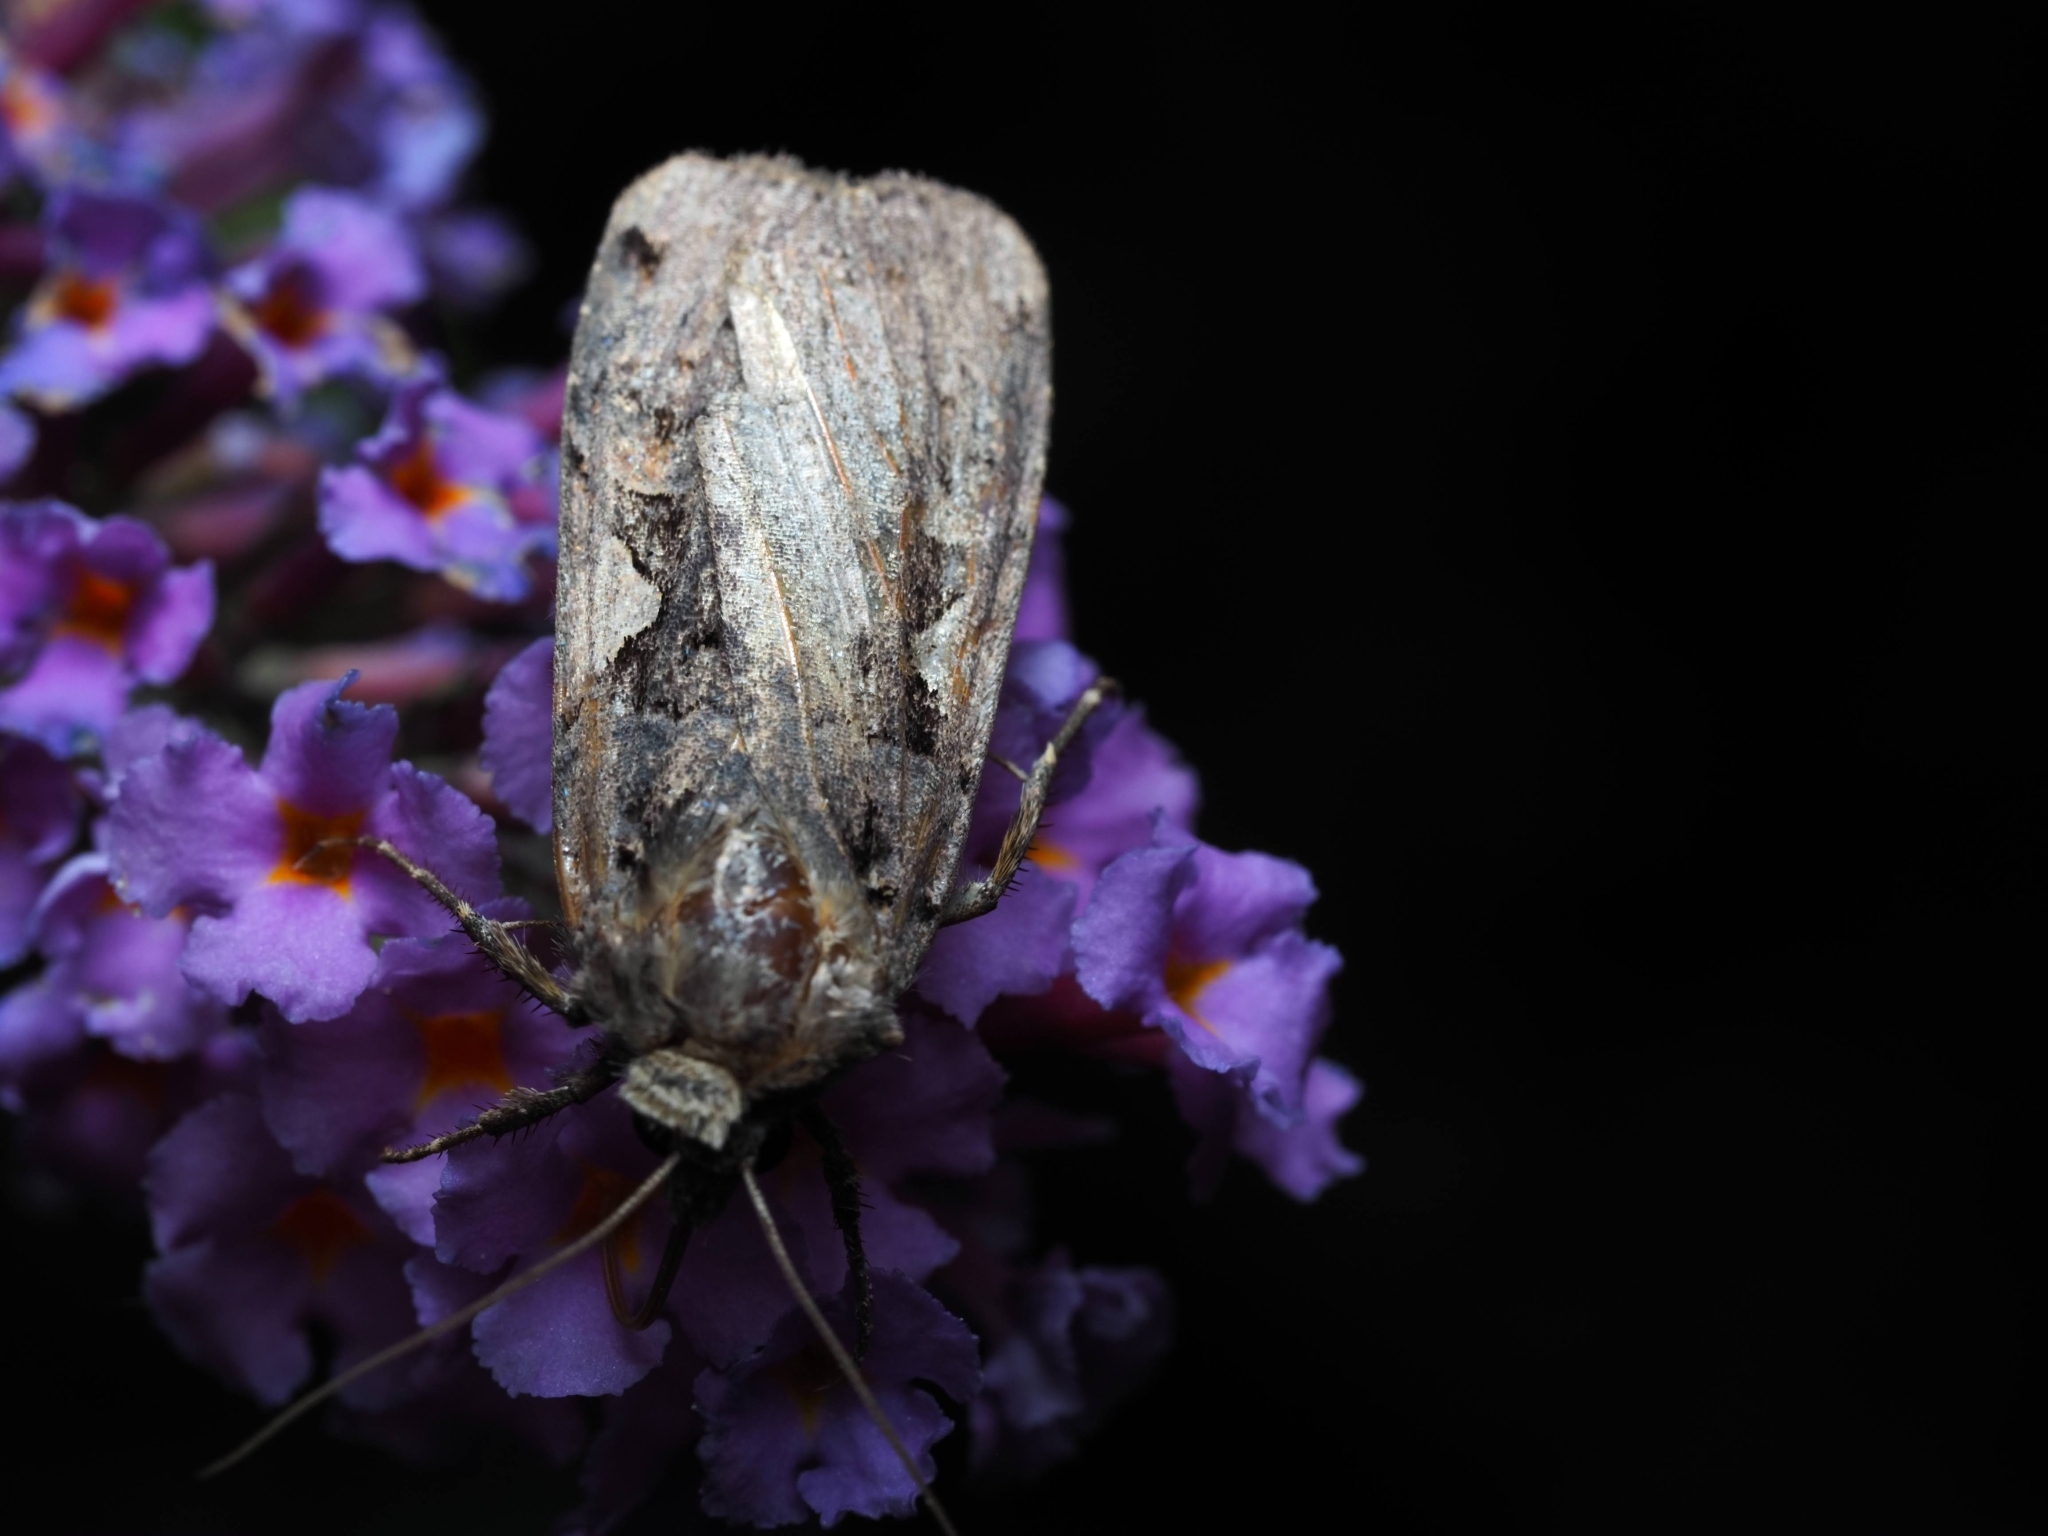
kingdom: Animalia
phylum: Arthropoda
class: Insecta
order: Lepidoptera
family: Noctuidae
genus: Xestia
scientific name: Xestia c-nigrum
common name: Setaceous hebrew character
